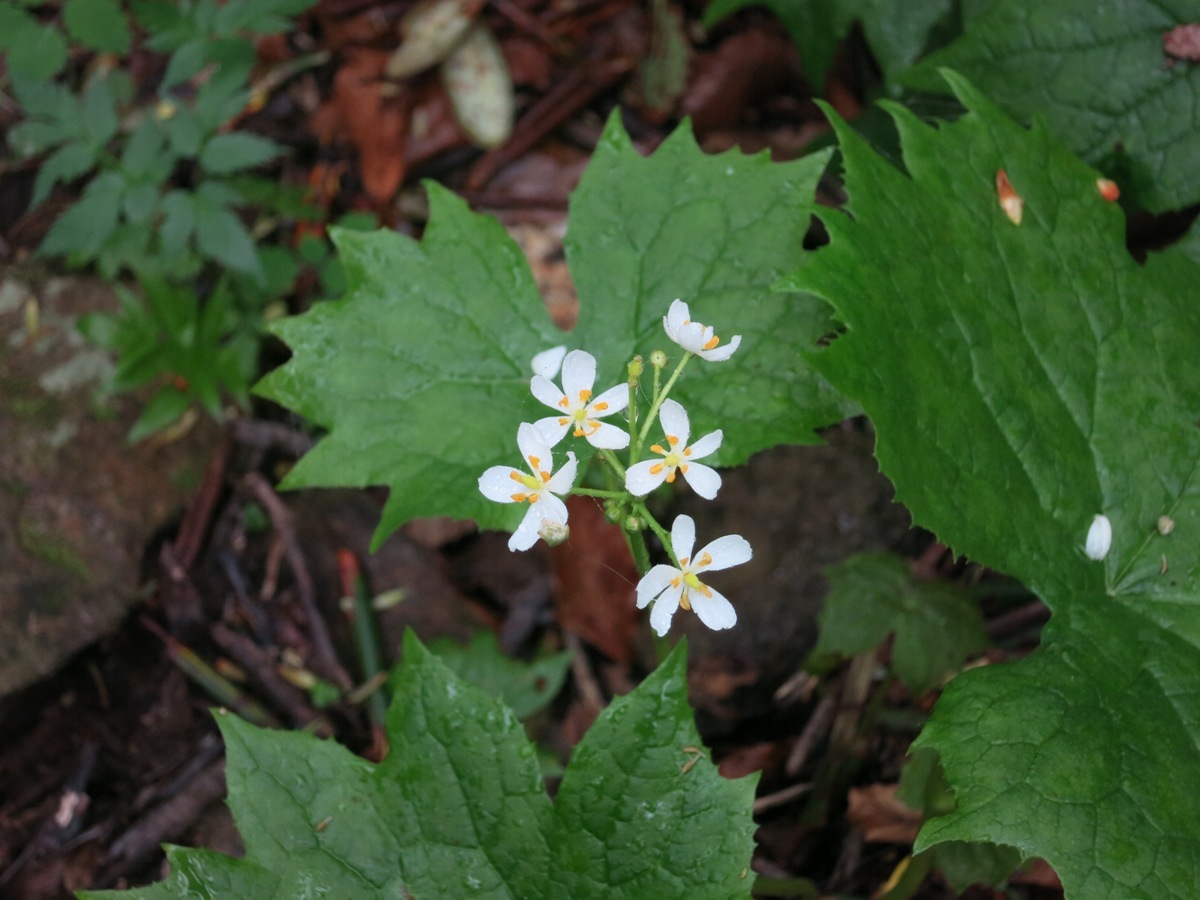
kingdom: Plantae
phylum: Tracheophyta
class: Magnoliopsida
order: Ranunculales
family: Berberidaceae
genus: Diphylleia
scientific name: Diphylleia cymosa
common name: Umbrella-leaf
